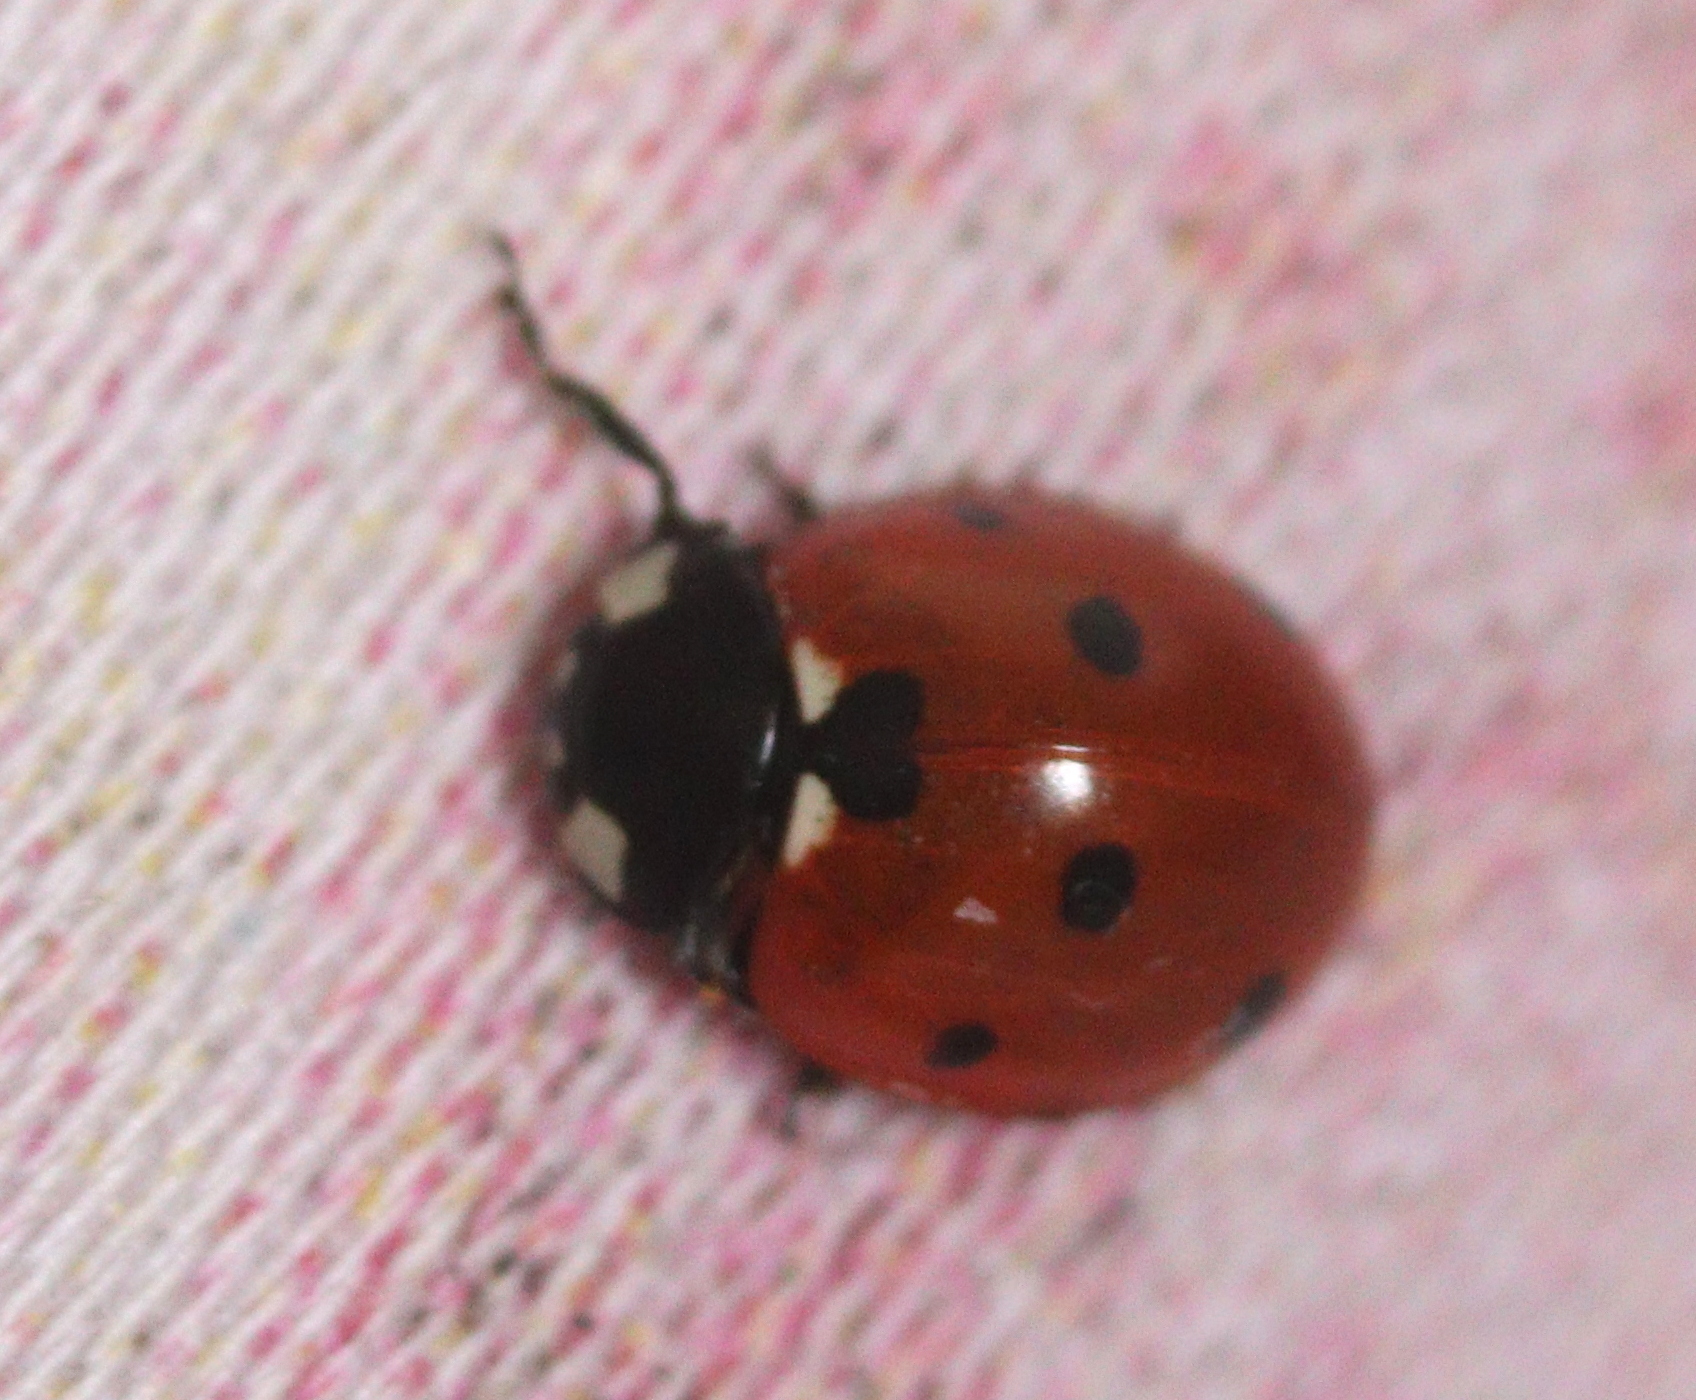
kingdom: Animalia
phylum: Arthropoda
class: Insecta
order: Coleoptera
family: Coccinellidae
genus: Coccinella
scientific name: Coccinella septempunctata
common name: Sevenspotted lady beetle
